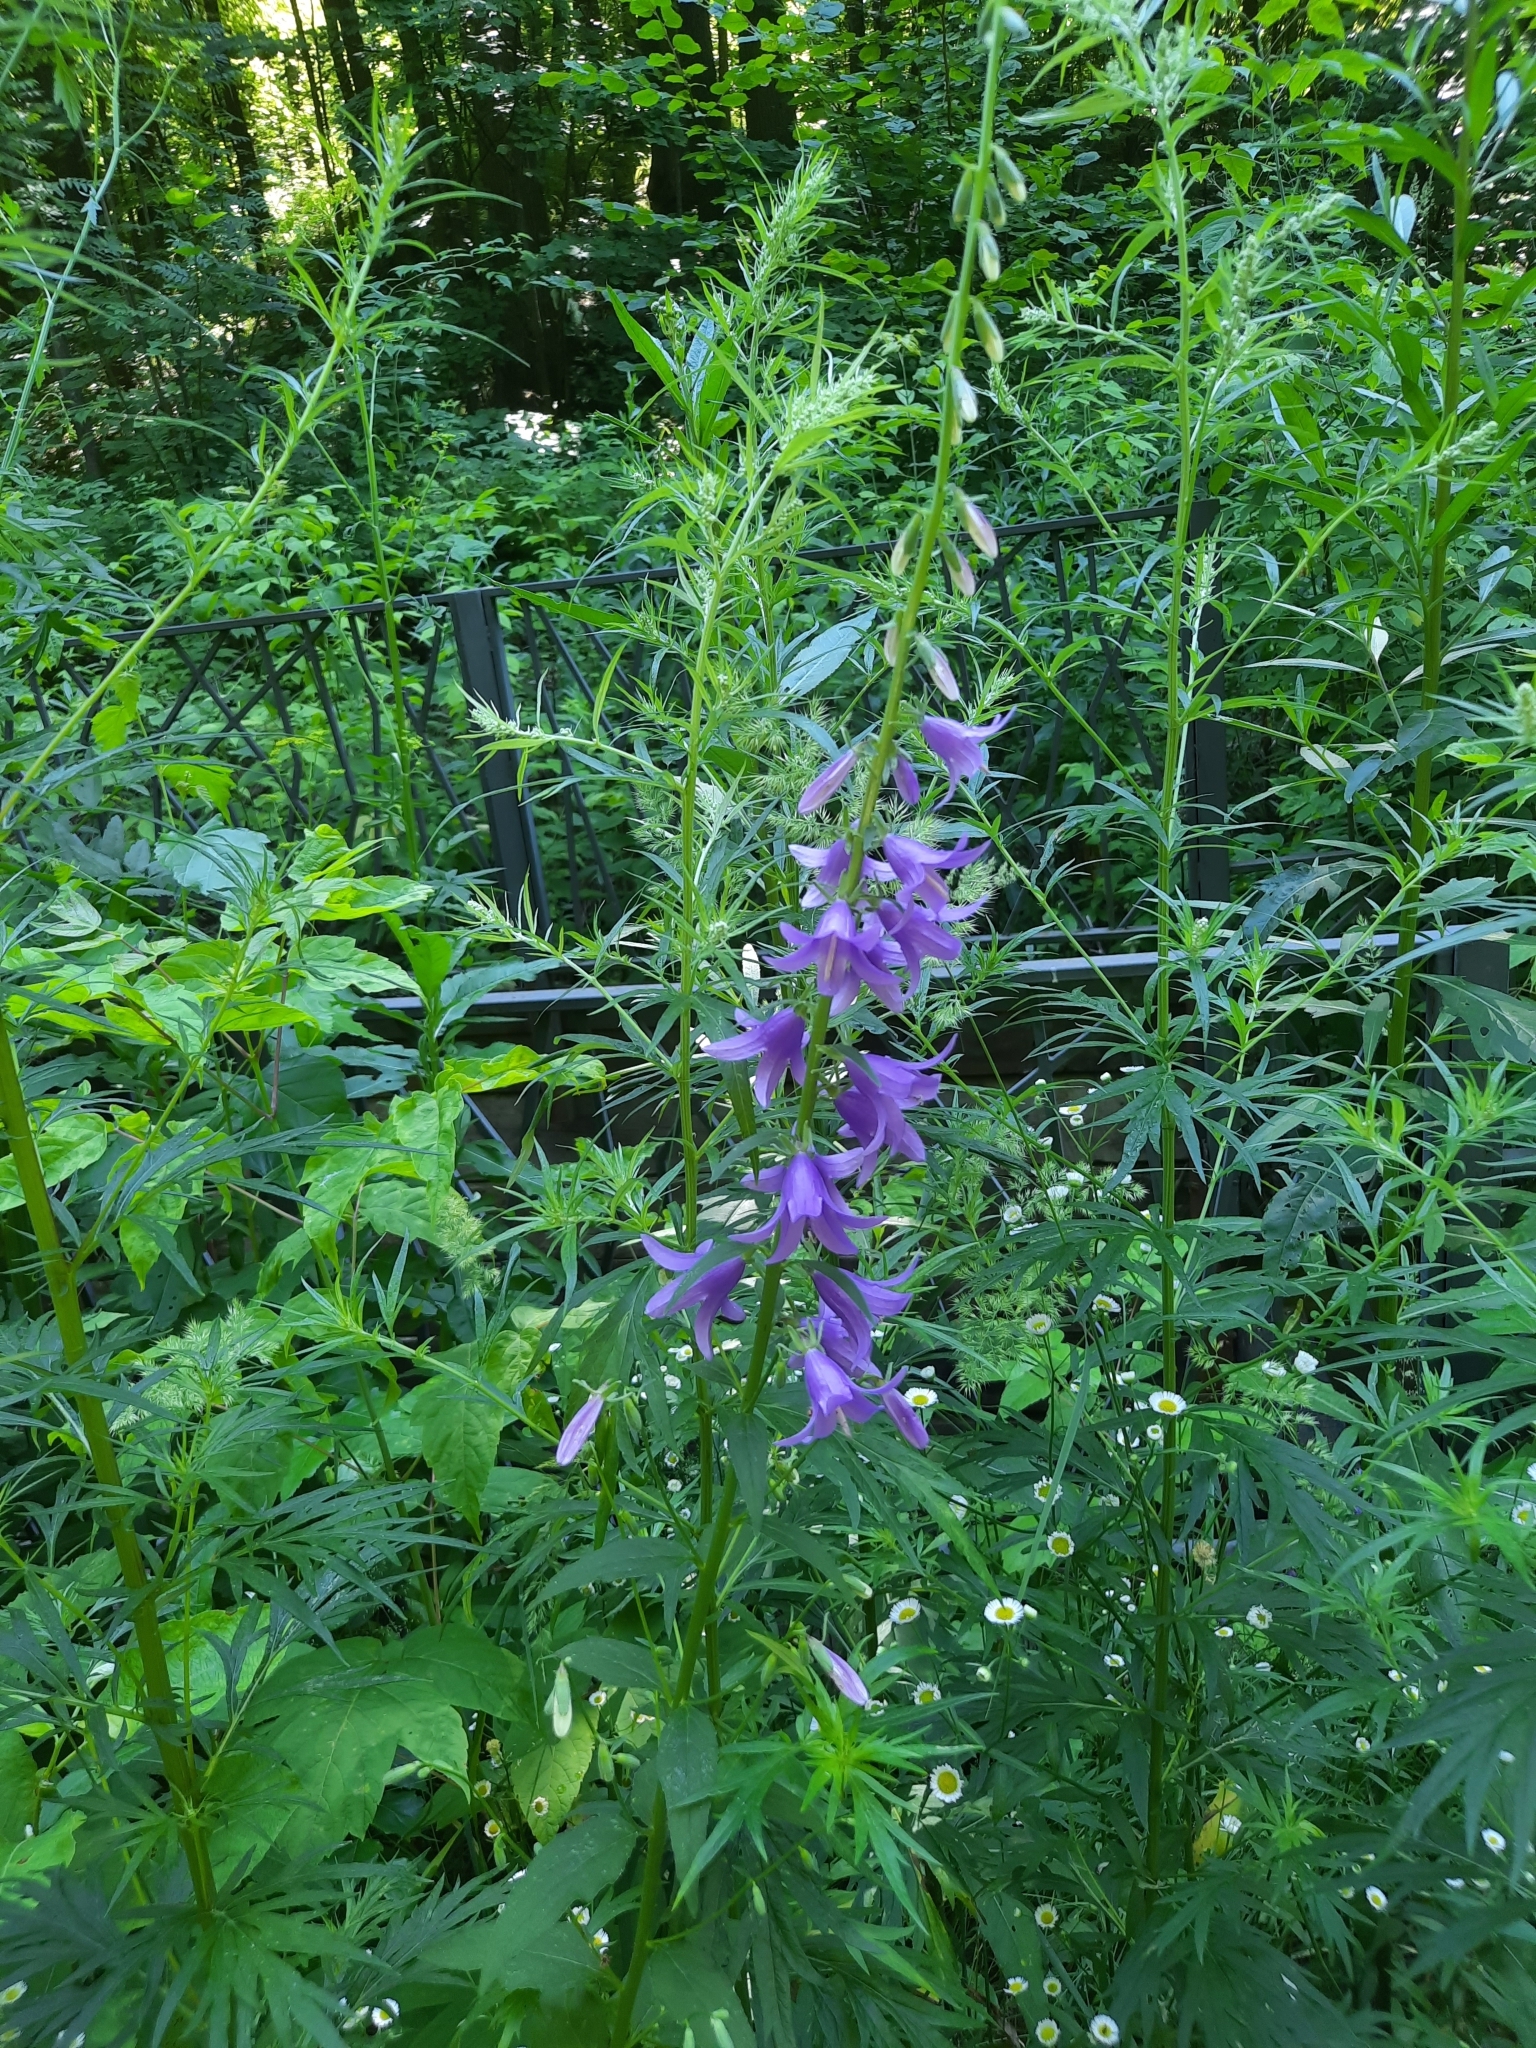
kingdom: Plantae
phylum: Tracheophyta
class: Magnoliopsida
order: Asterales
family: Campanulaceae
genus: Campanula
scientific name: Campanula rapunculoides
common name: Creeping bellflower
